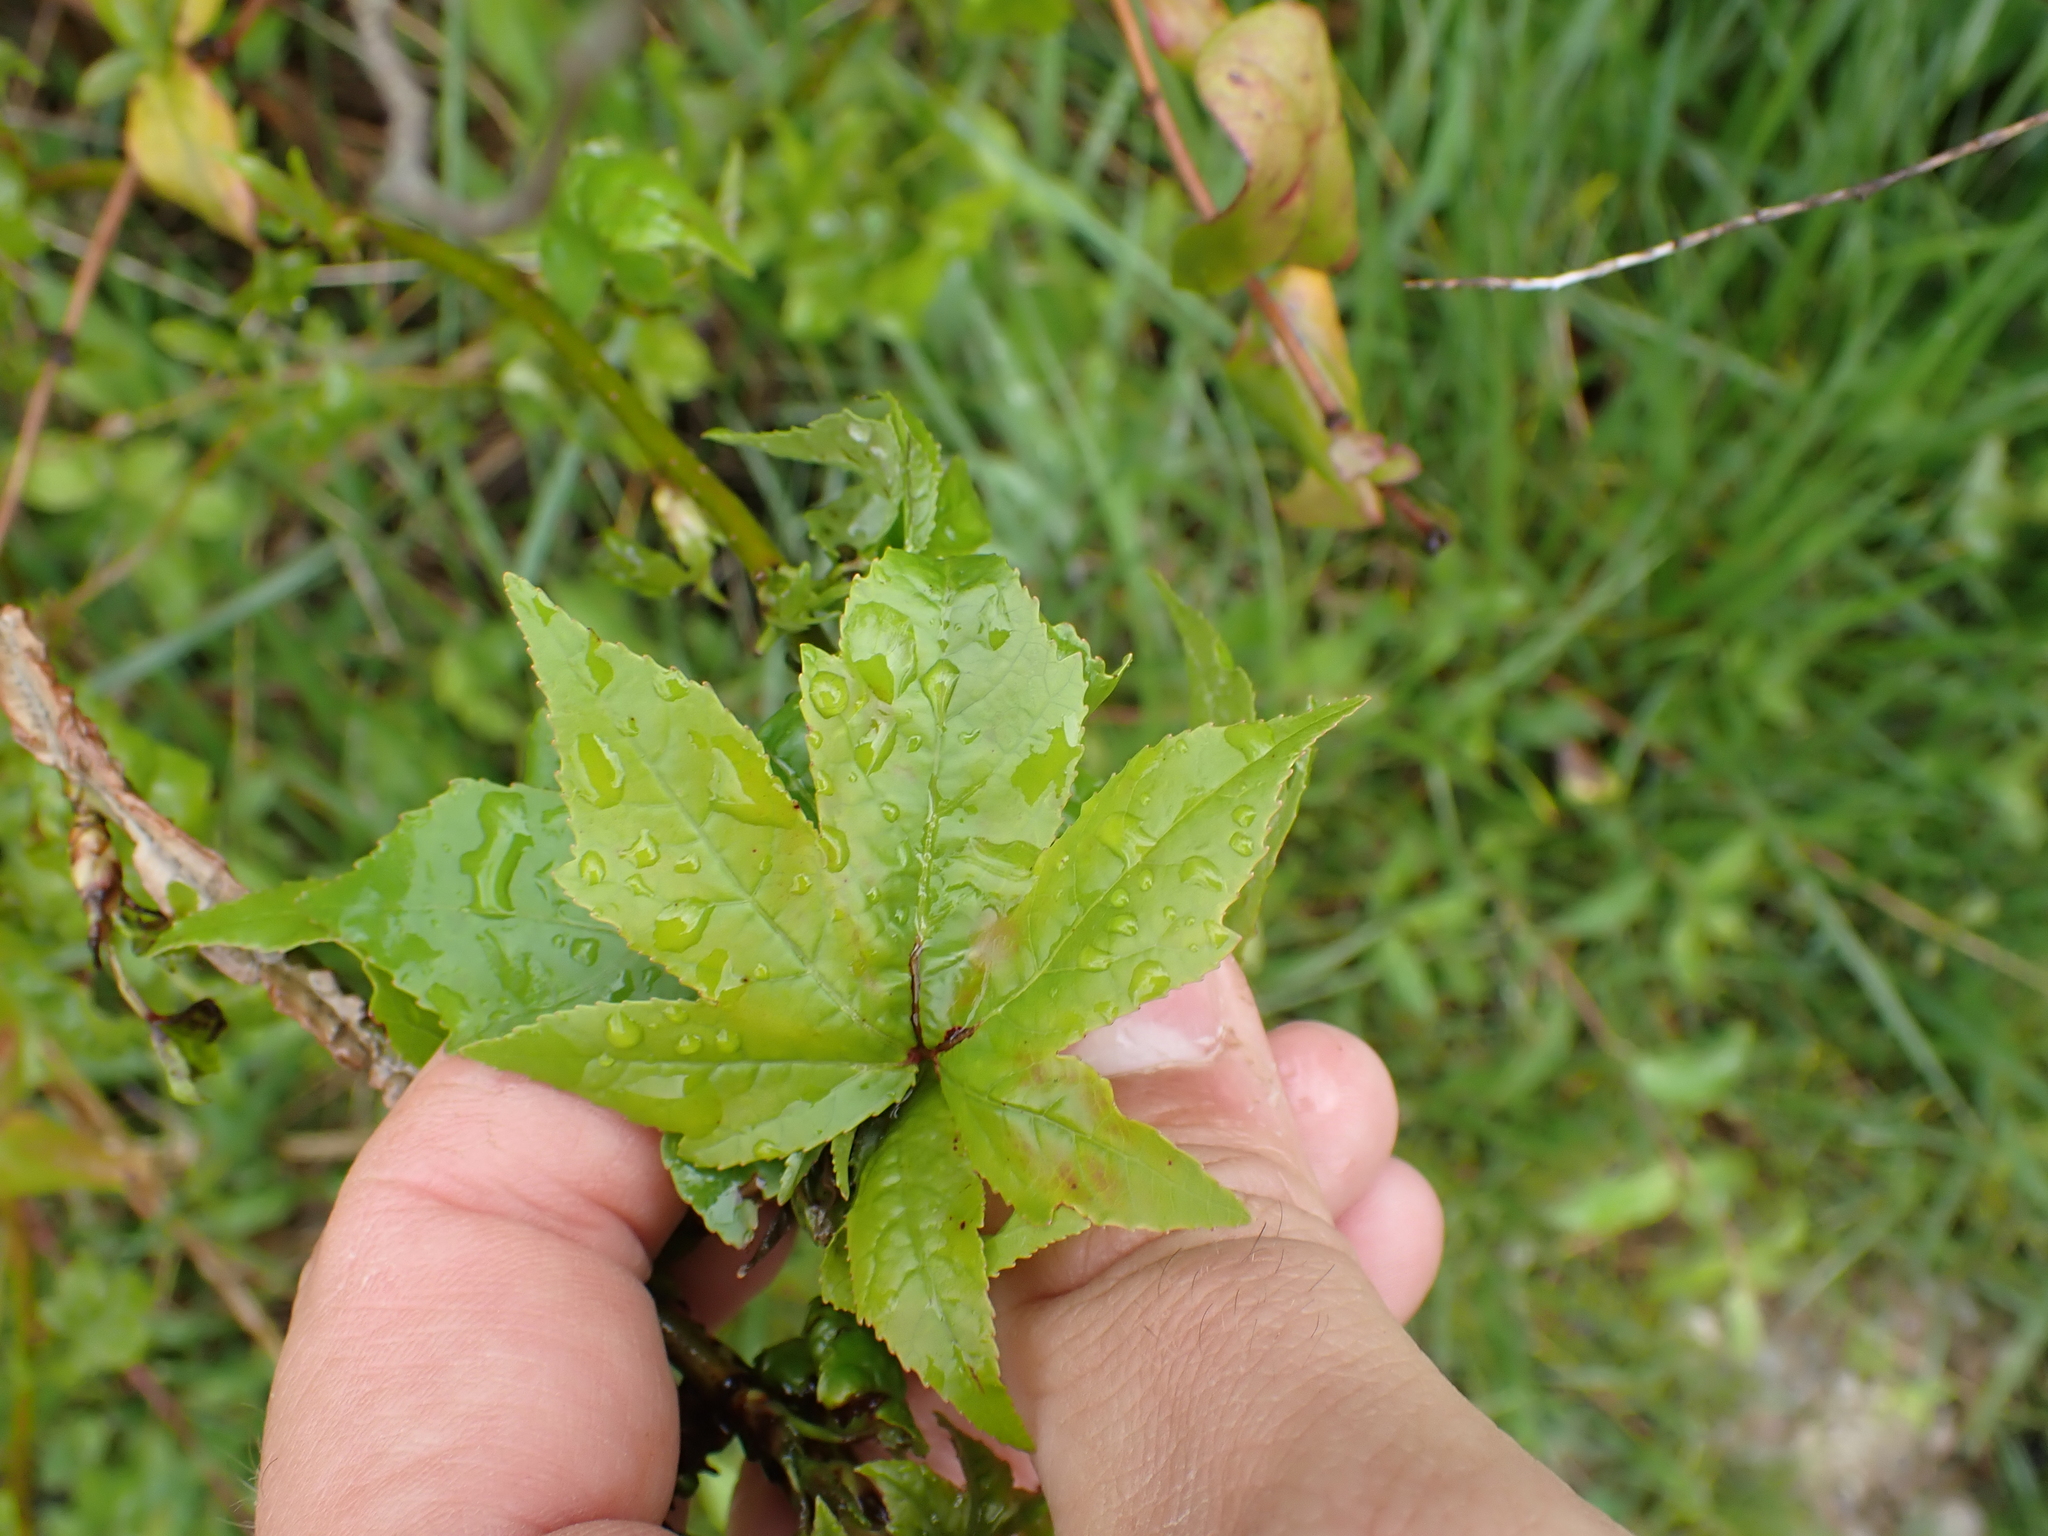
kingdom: Plantae
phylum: Tracheophyta
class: Magnoliopsida
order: Saxifragales
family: Altingiaceae
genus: Liquidambar
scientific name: Liquidambar styraciflua
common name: Sweet gum
